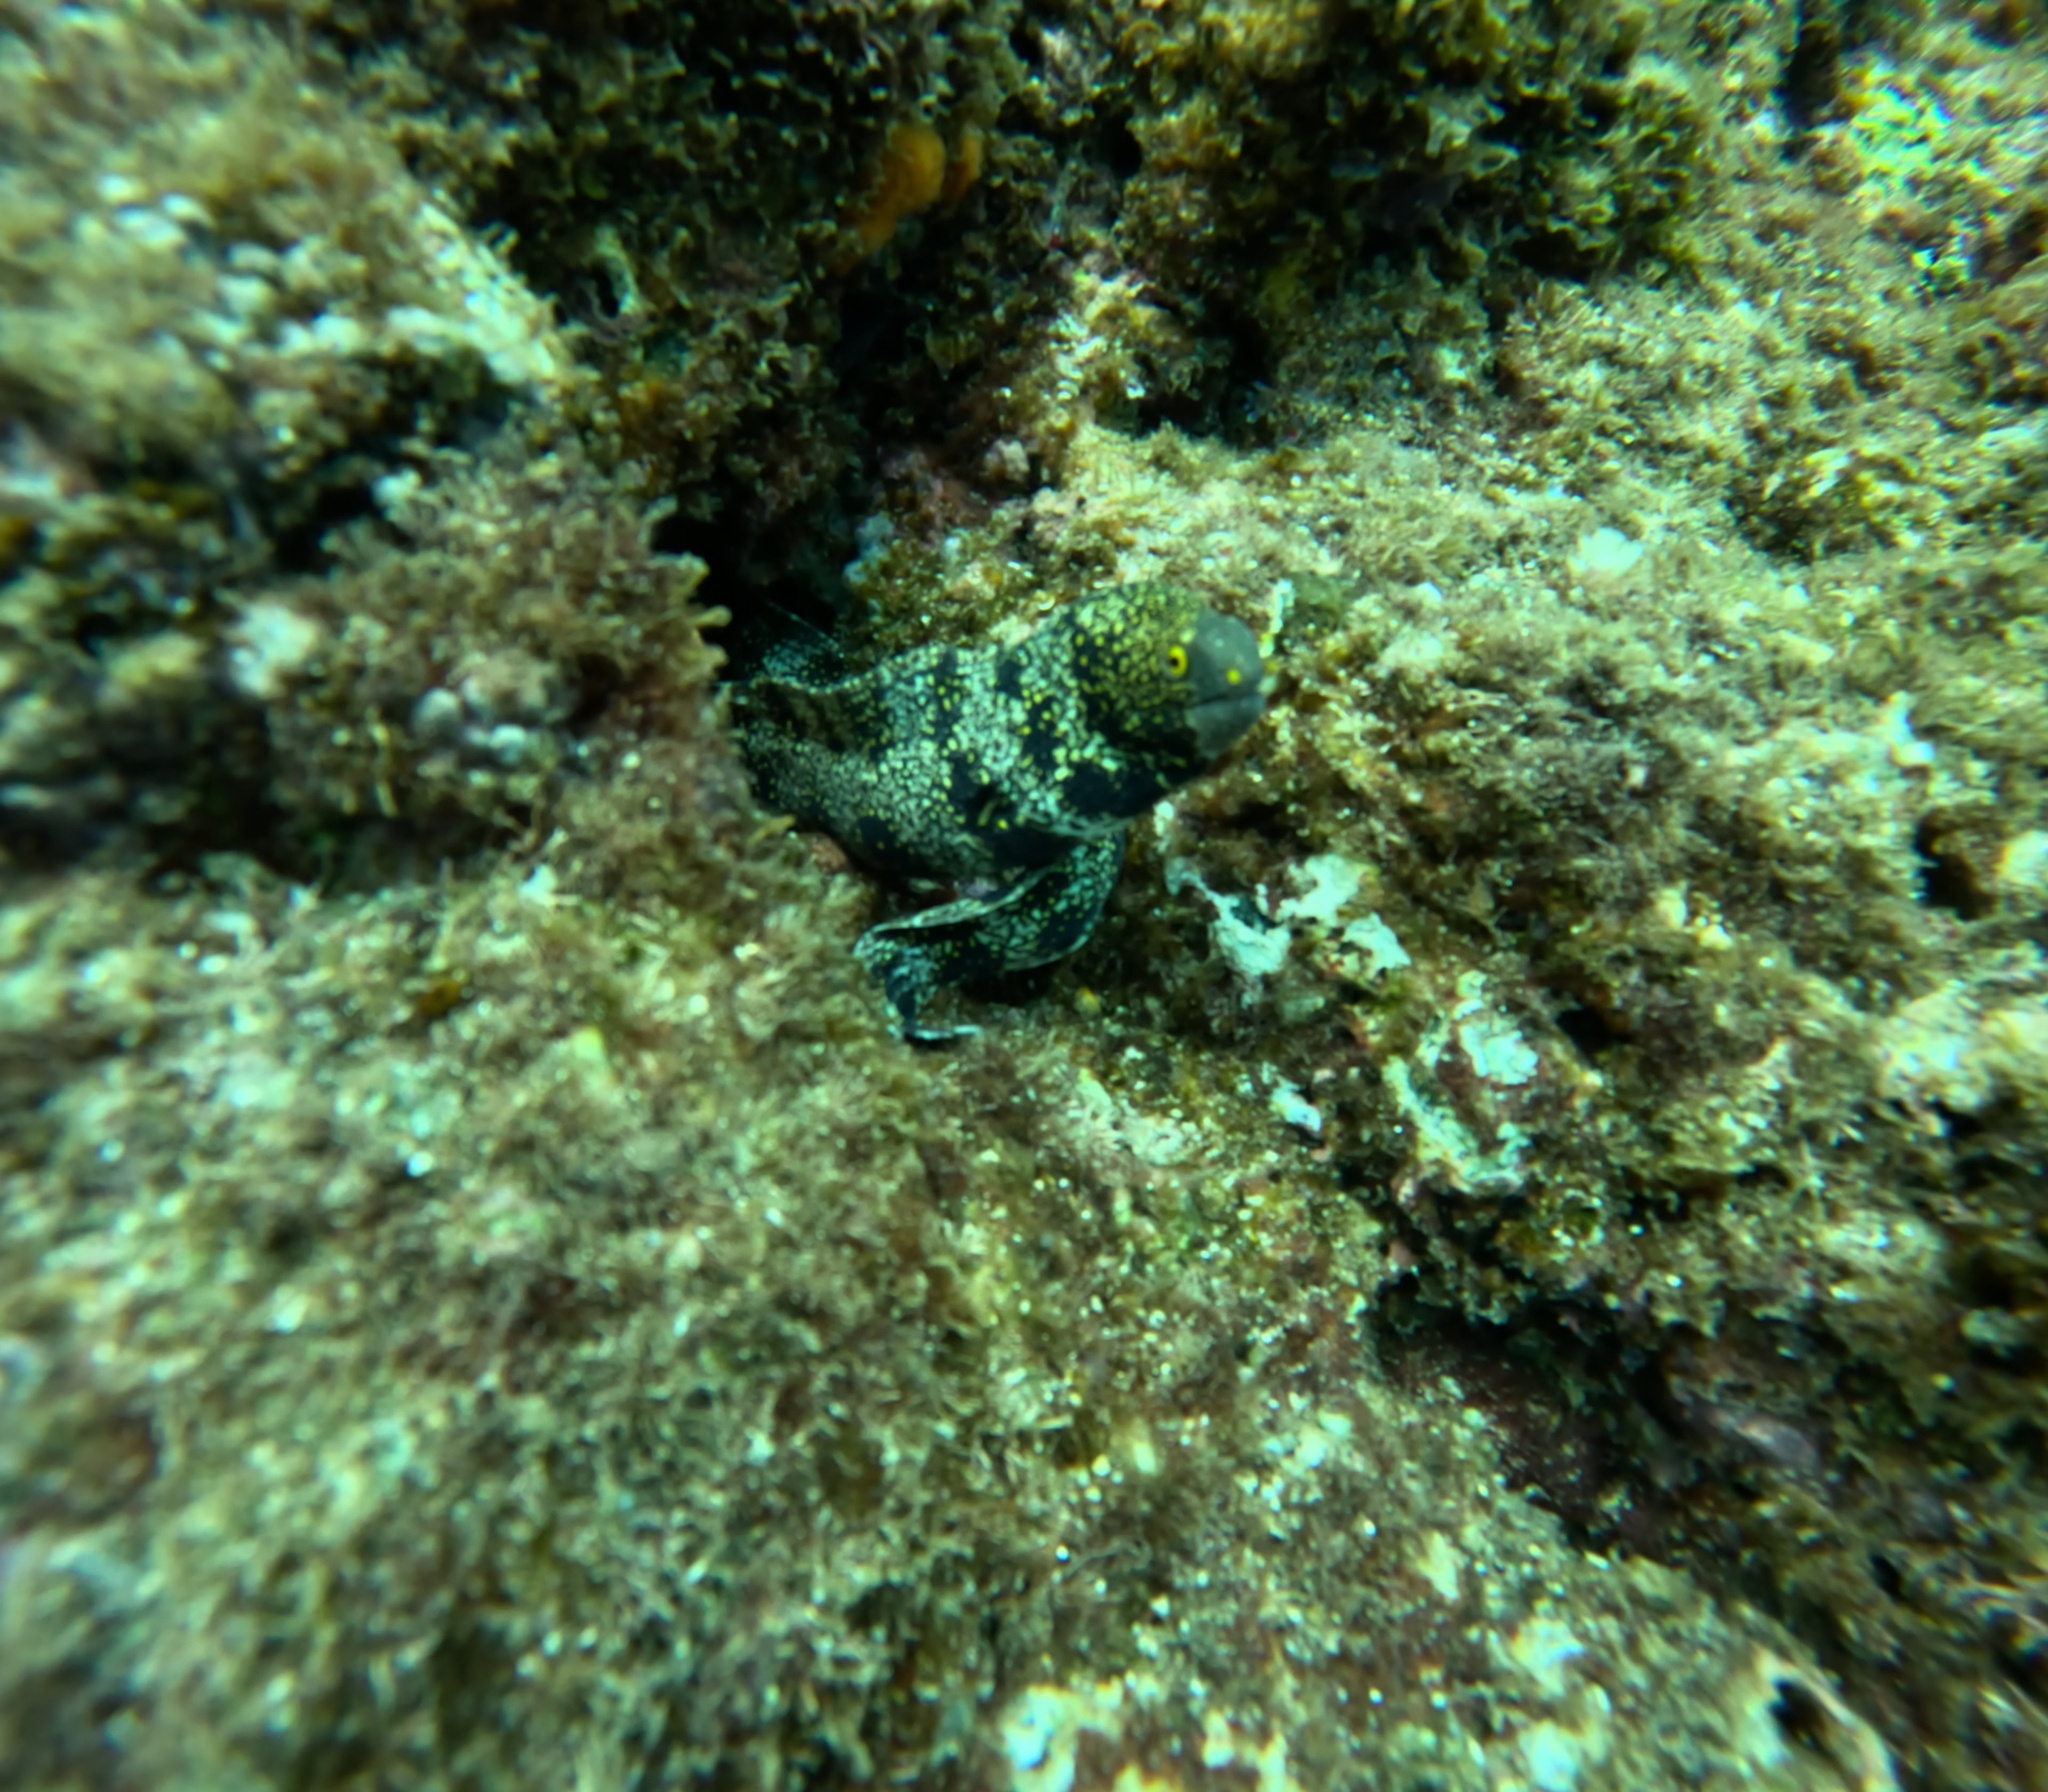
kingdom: Animalia
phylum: Chordata
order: Anguilliformes
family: Muraenidae
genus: Echidna
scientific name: Echidna nebulosa
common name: Snowflake moray
